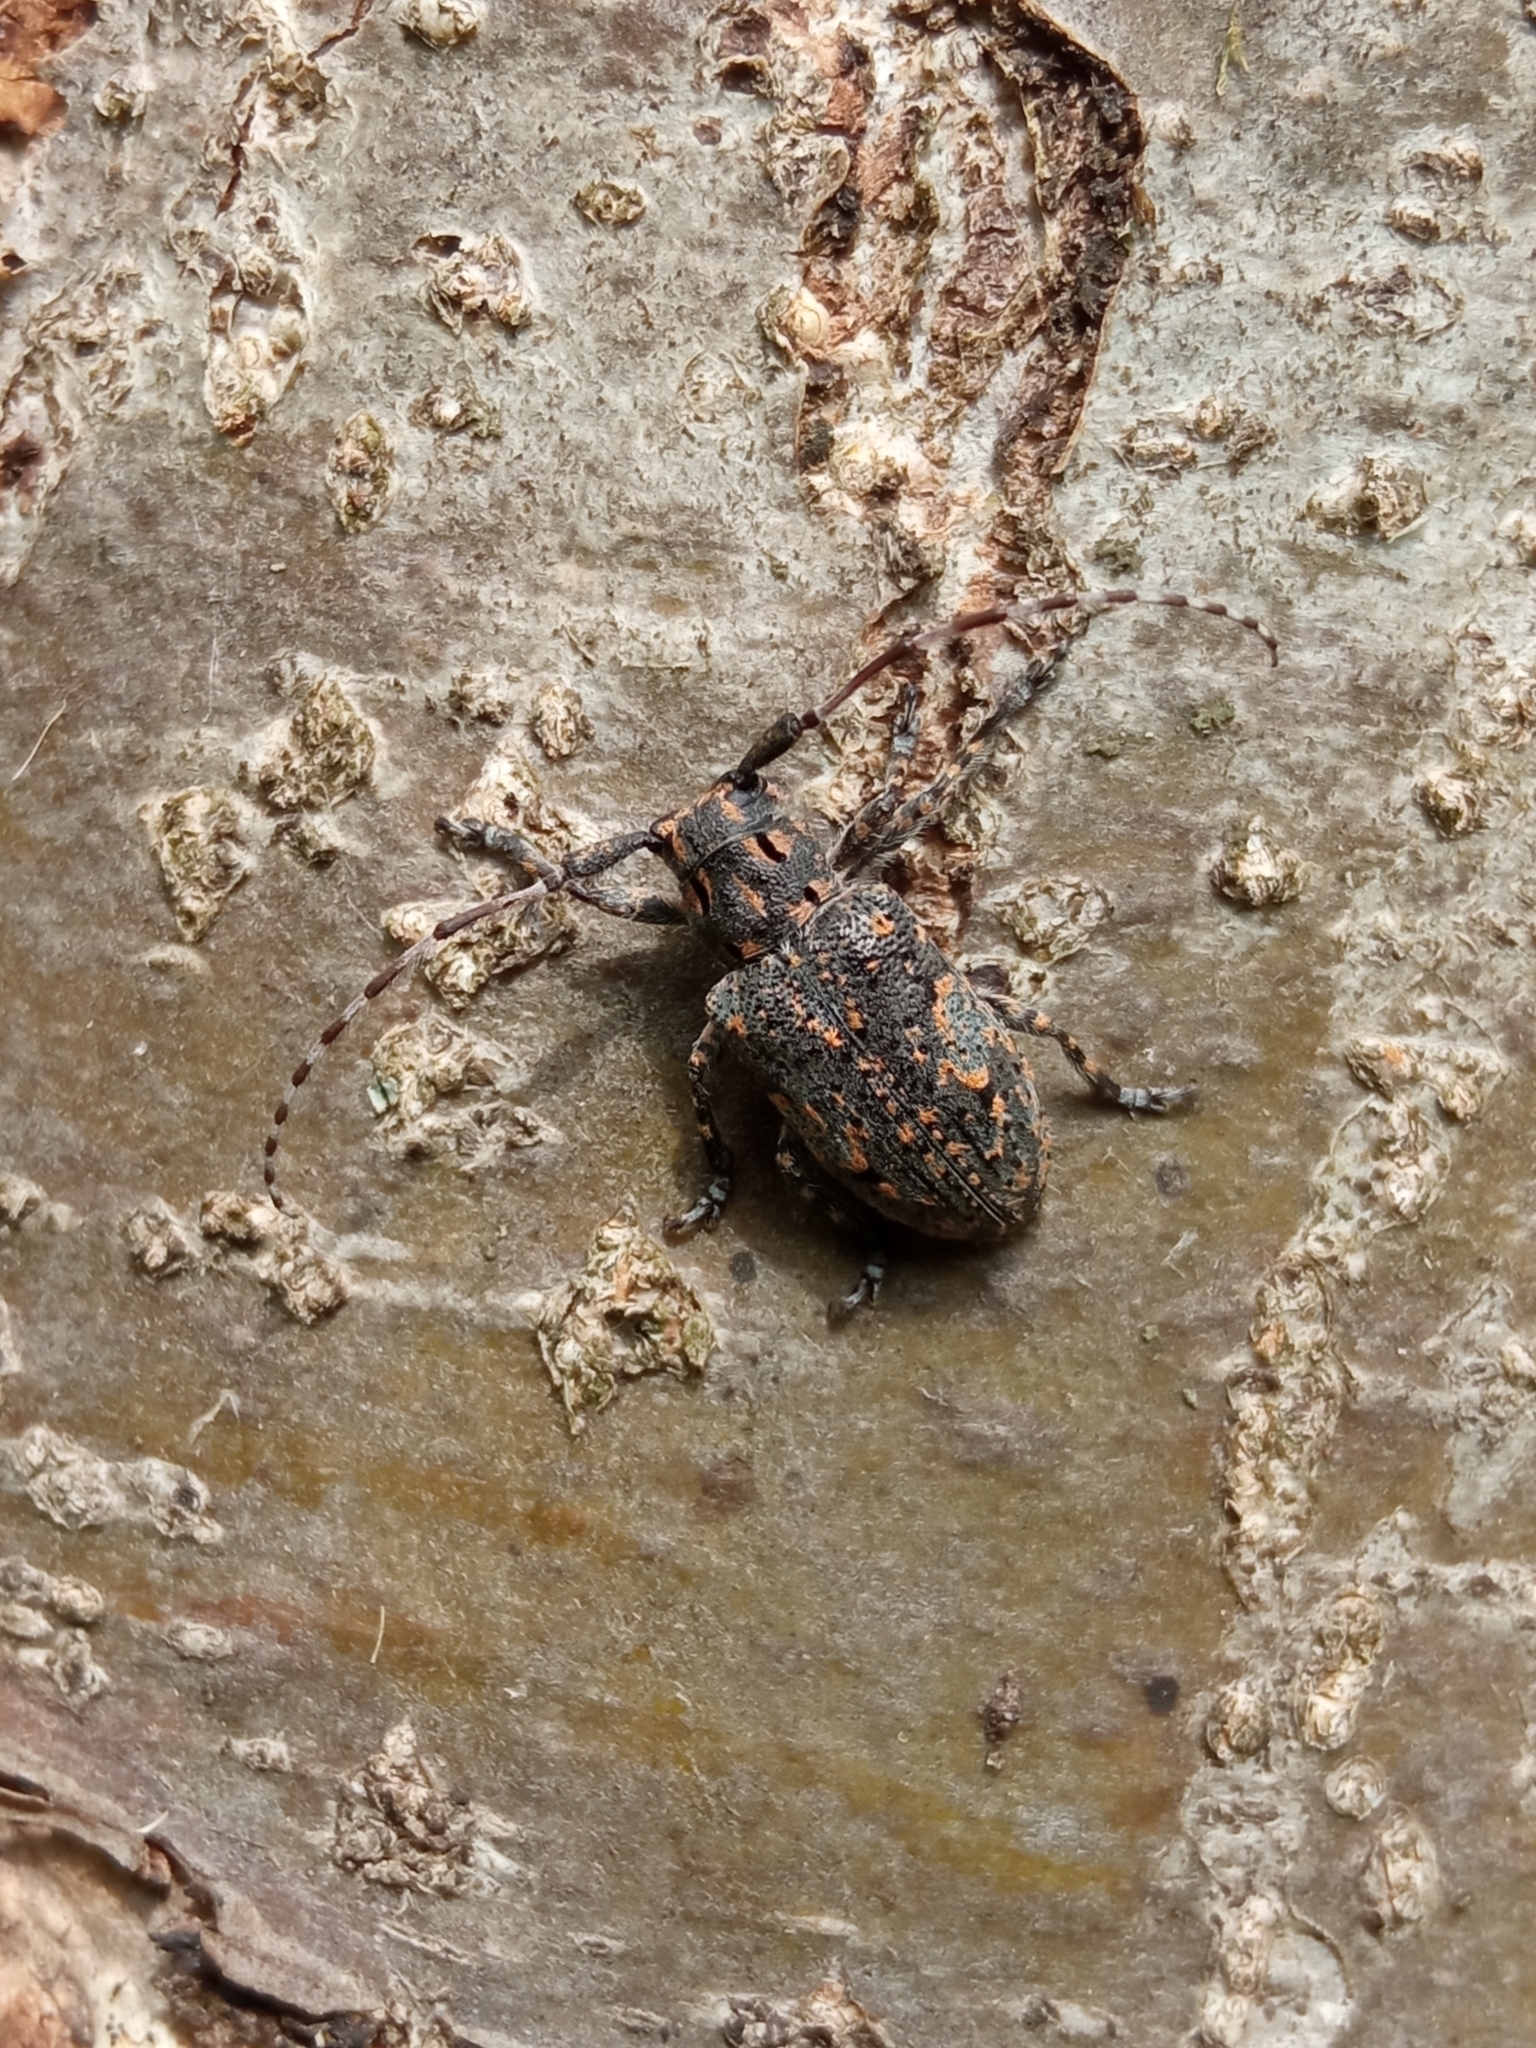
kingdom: Animalia
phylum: Arthropoda
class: Insecta
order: Coleoptera
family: Cerambycidae
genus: Mesosa
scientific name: Mesosa myops
